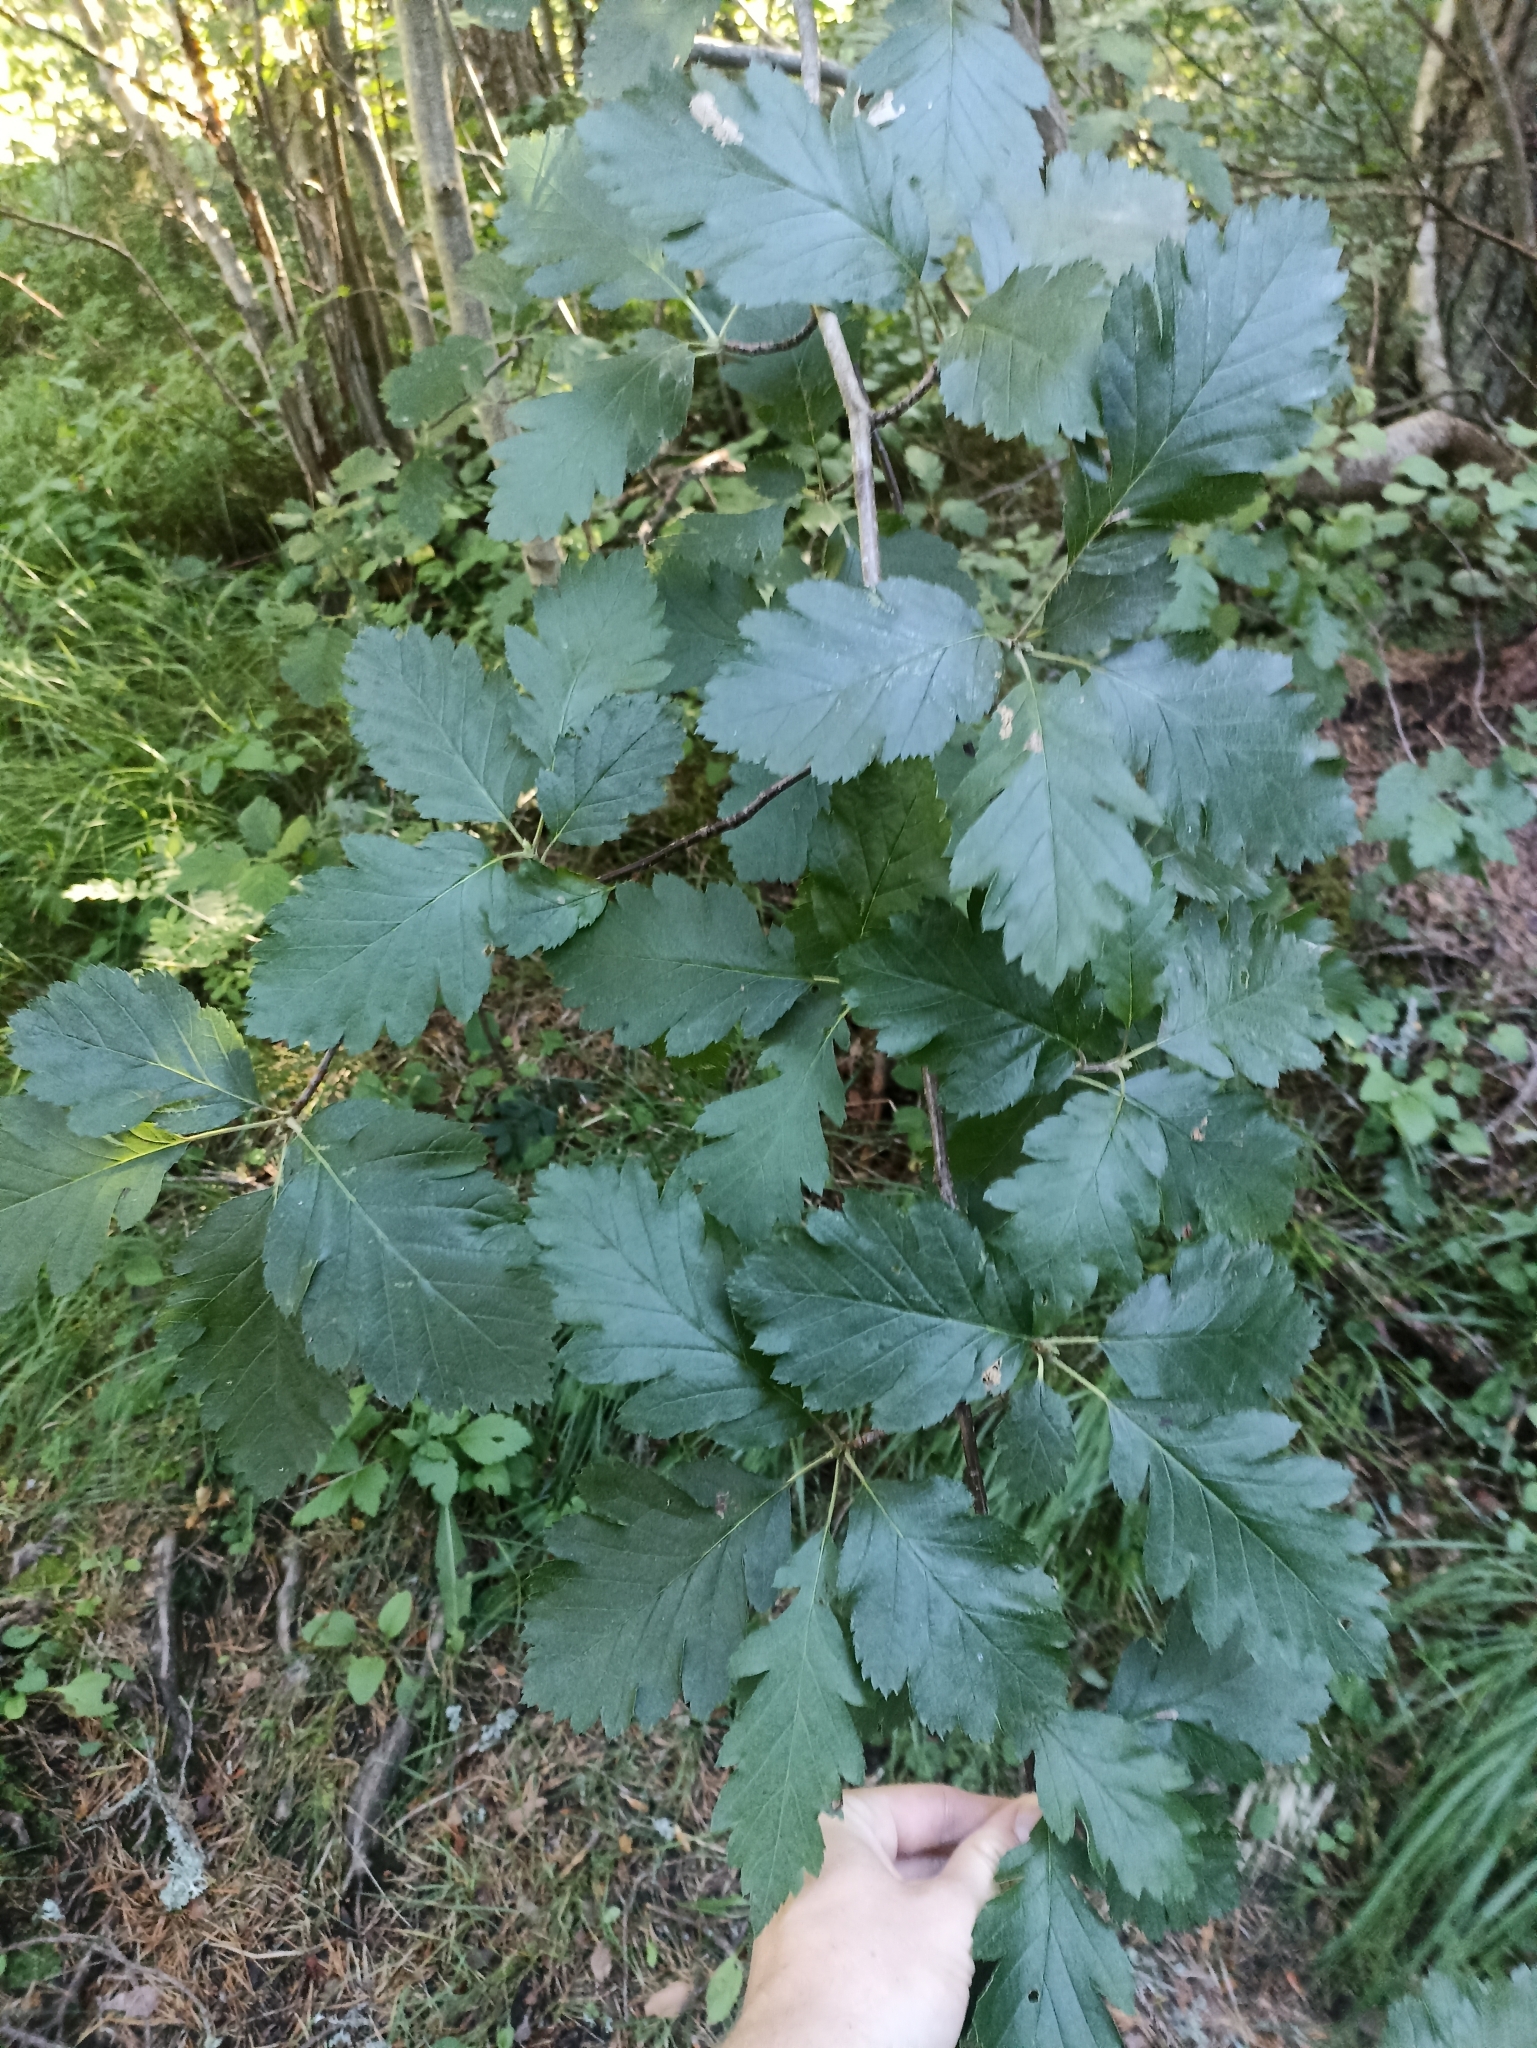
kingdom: Plantae
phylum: Tracheophyta
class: Magnoliopsida
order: Rosales
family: Rosaceae
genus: Scandosorbus
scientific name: Scandosorbus intermedia
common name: Swedish whitebeam
